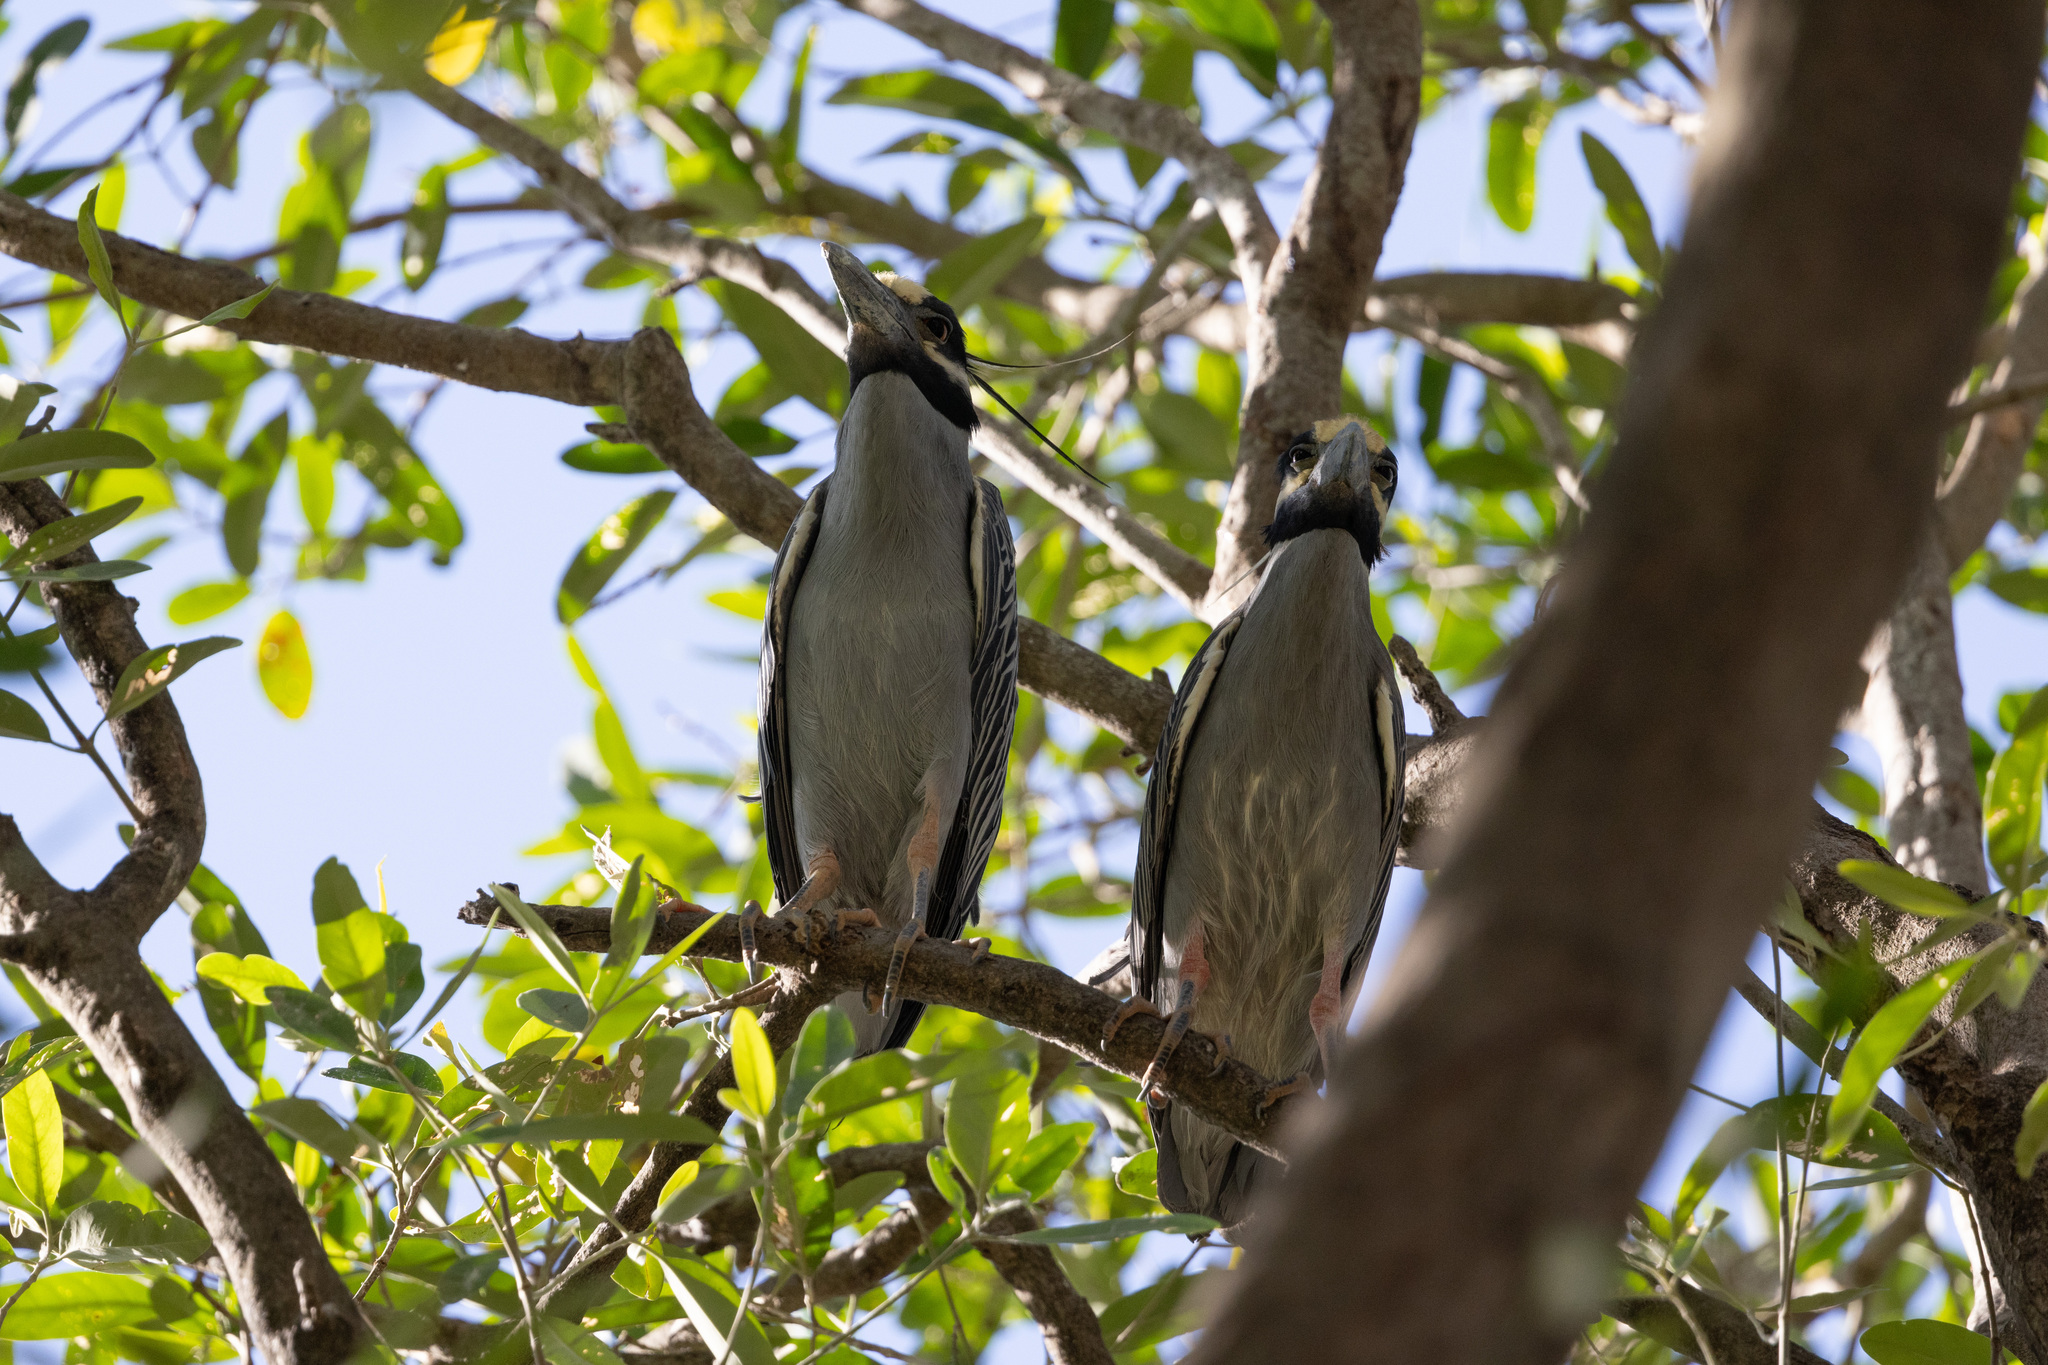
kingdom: Animalia
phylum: Chordata
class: Aves
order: Pelecaniformes
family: Ardeidae
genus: Nyctanassa
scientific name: Nyctanassa violacea
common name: Yellow-crowned night heron
